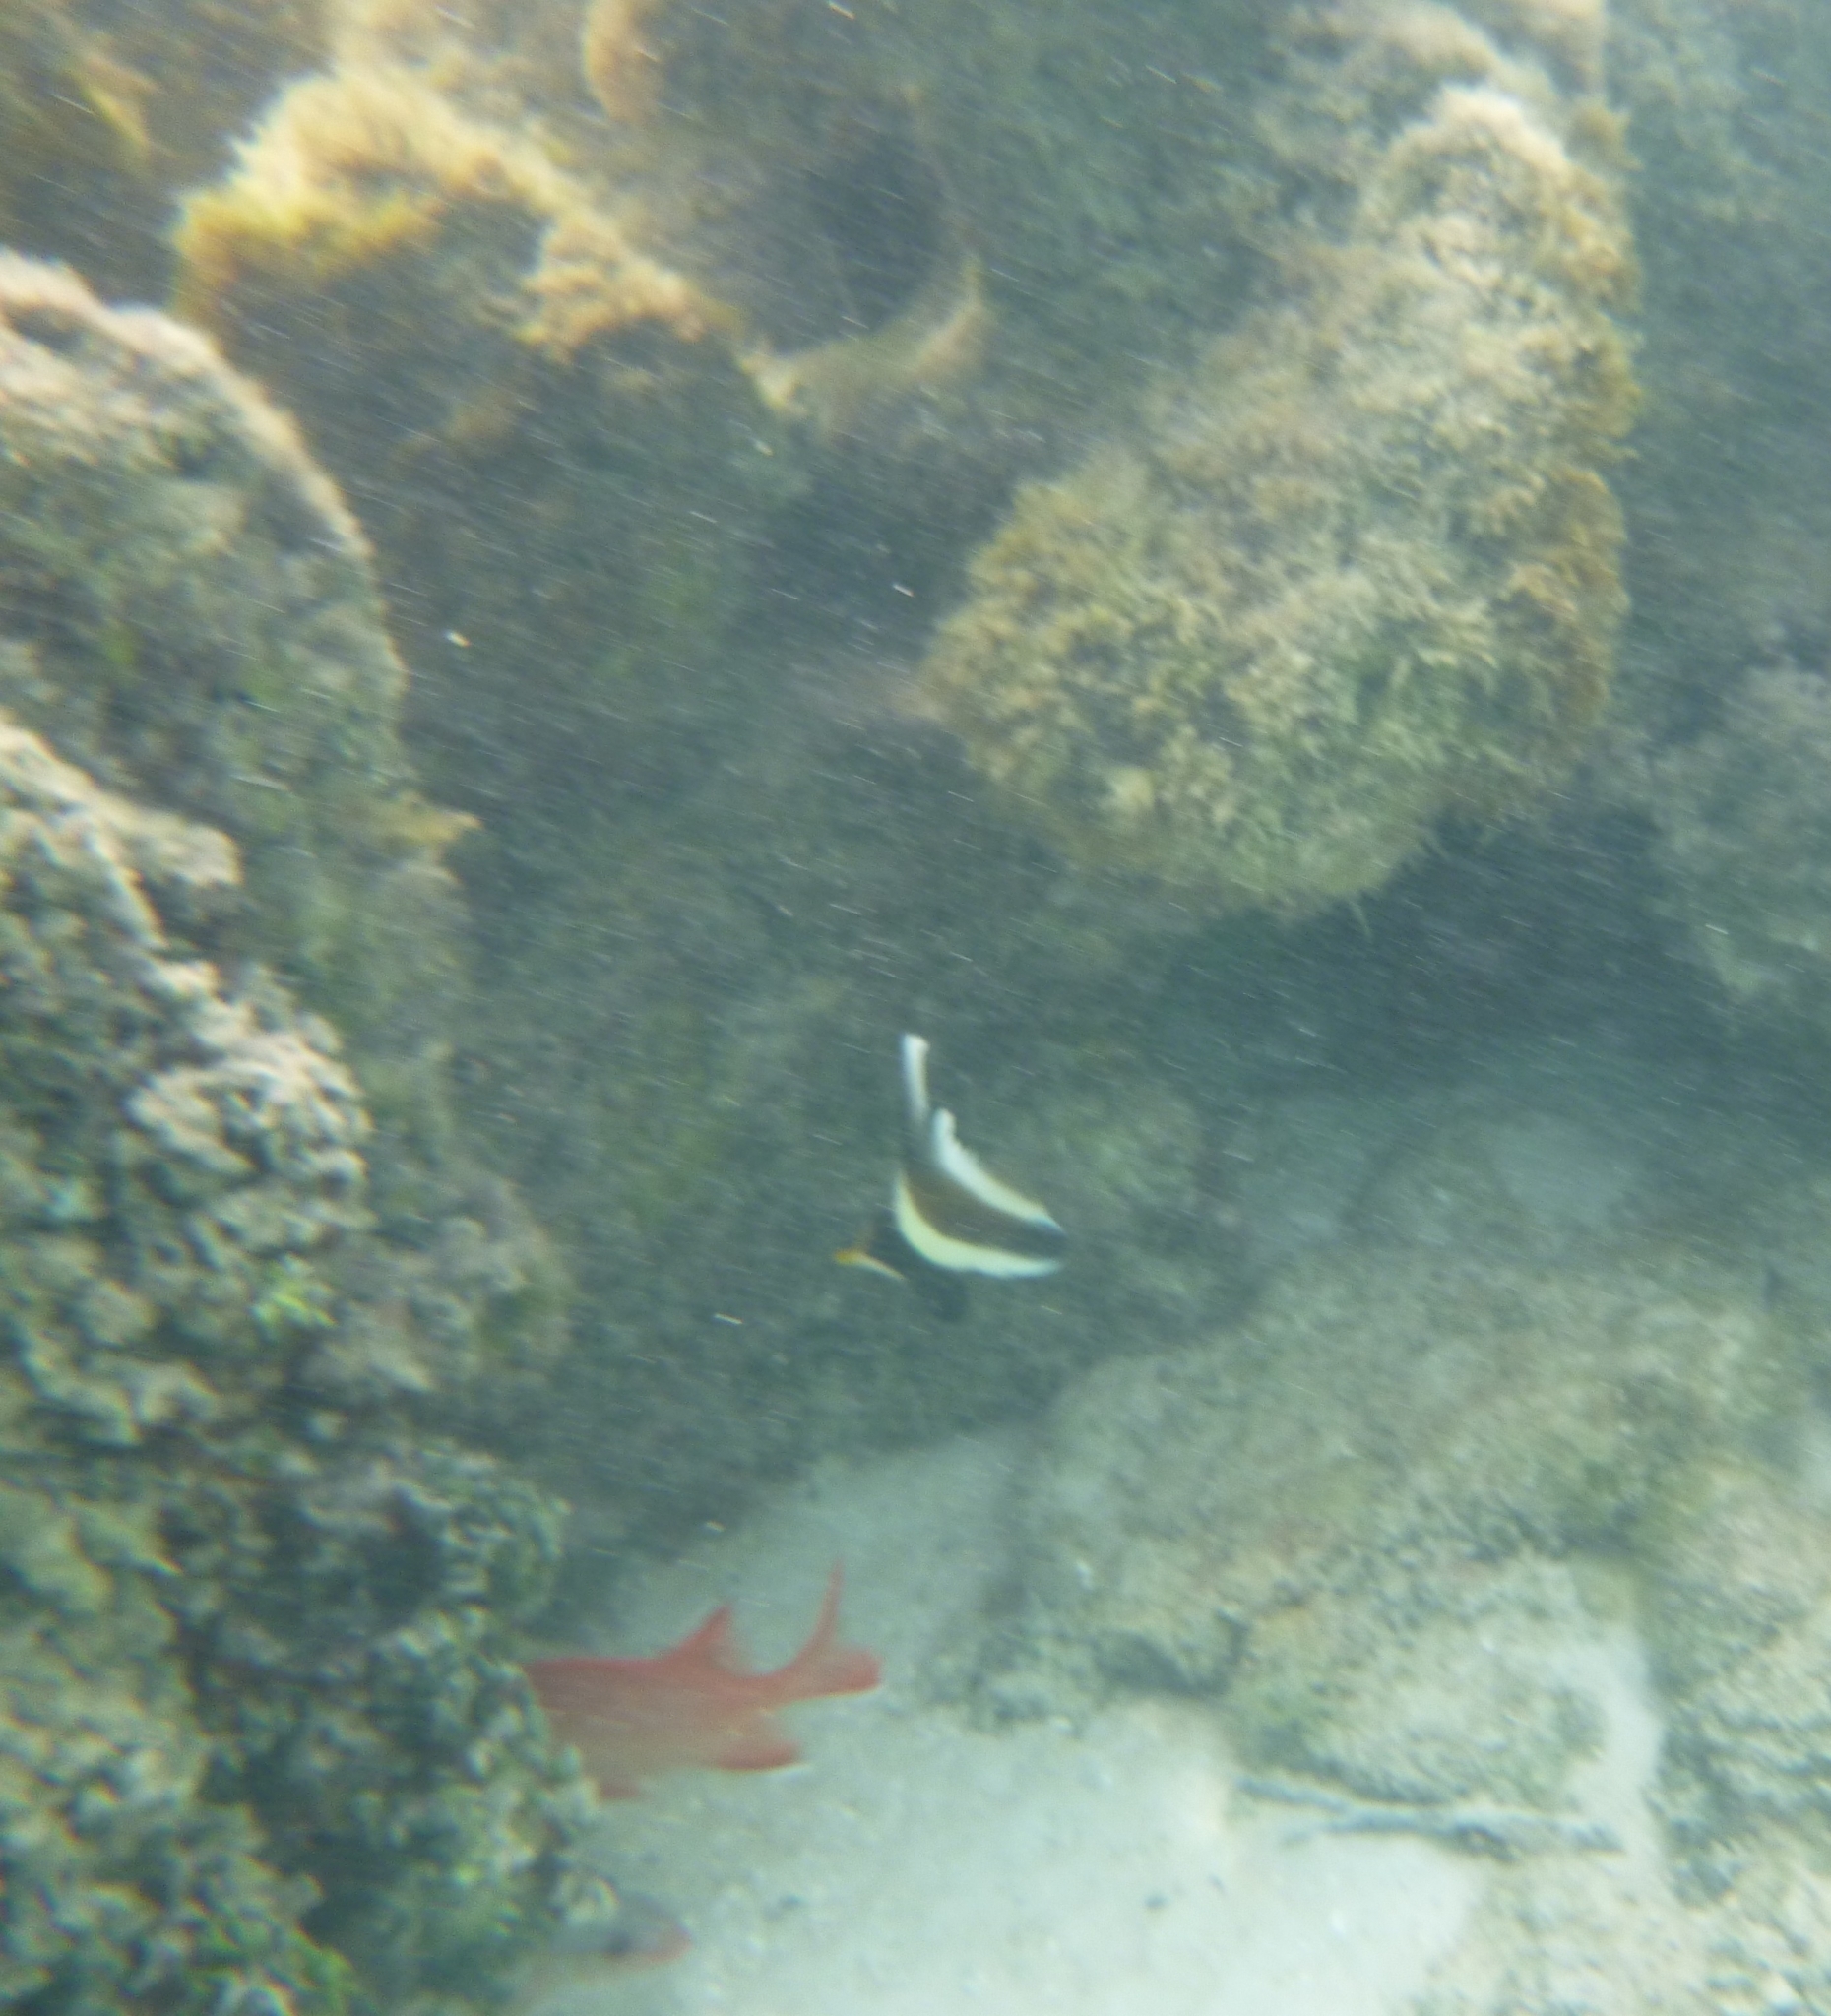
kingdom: Animalia
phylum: Chordata
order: Perciformes
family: Chaetodontidae
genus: Heniochus
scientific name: Heniochus chrysostomus
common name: Horned bannerfish
